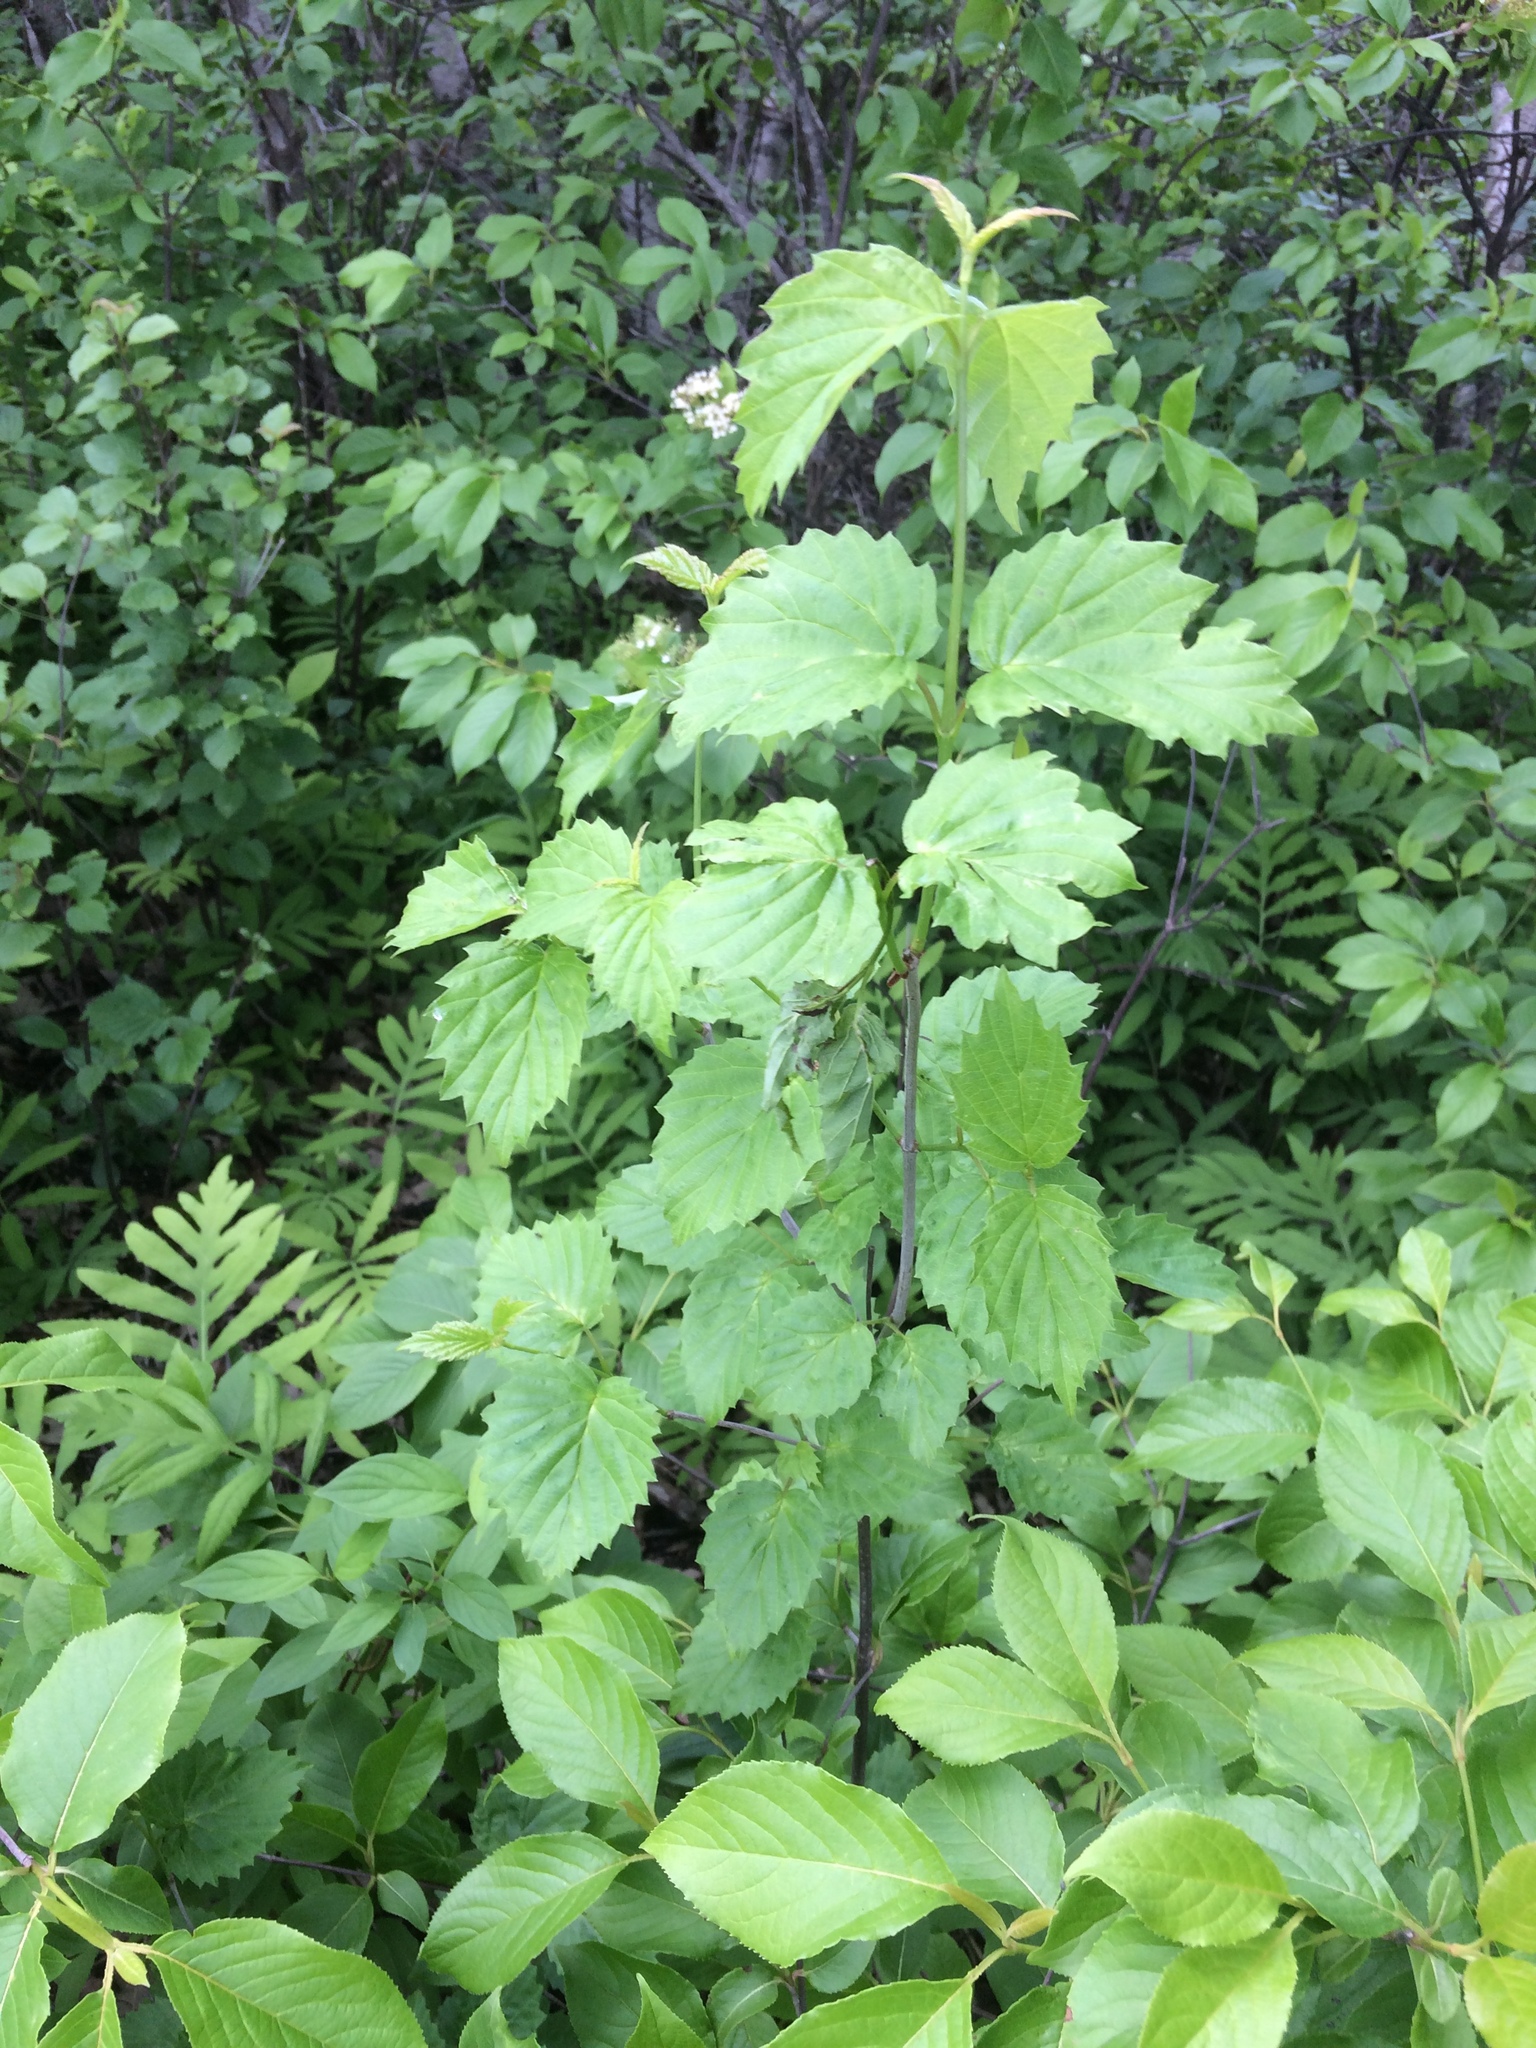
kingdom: Plantae
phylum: Tracheophyta
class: Magnoliopsida
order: Dipsacales
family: Viburnaceae
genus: Viburnum
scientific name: Viburnum dentatum
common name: Arrow-wood
